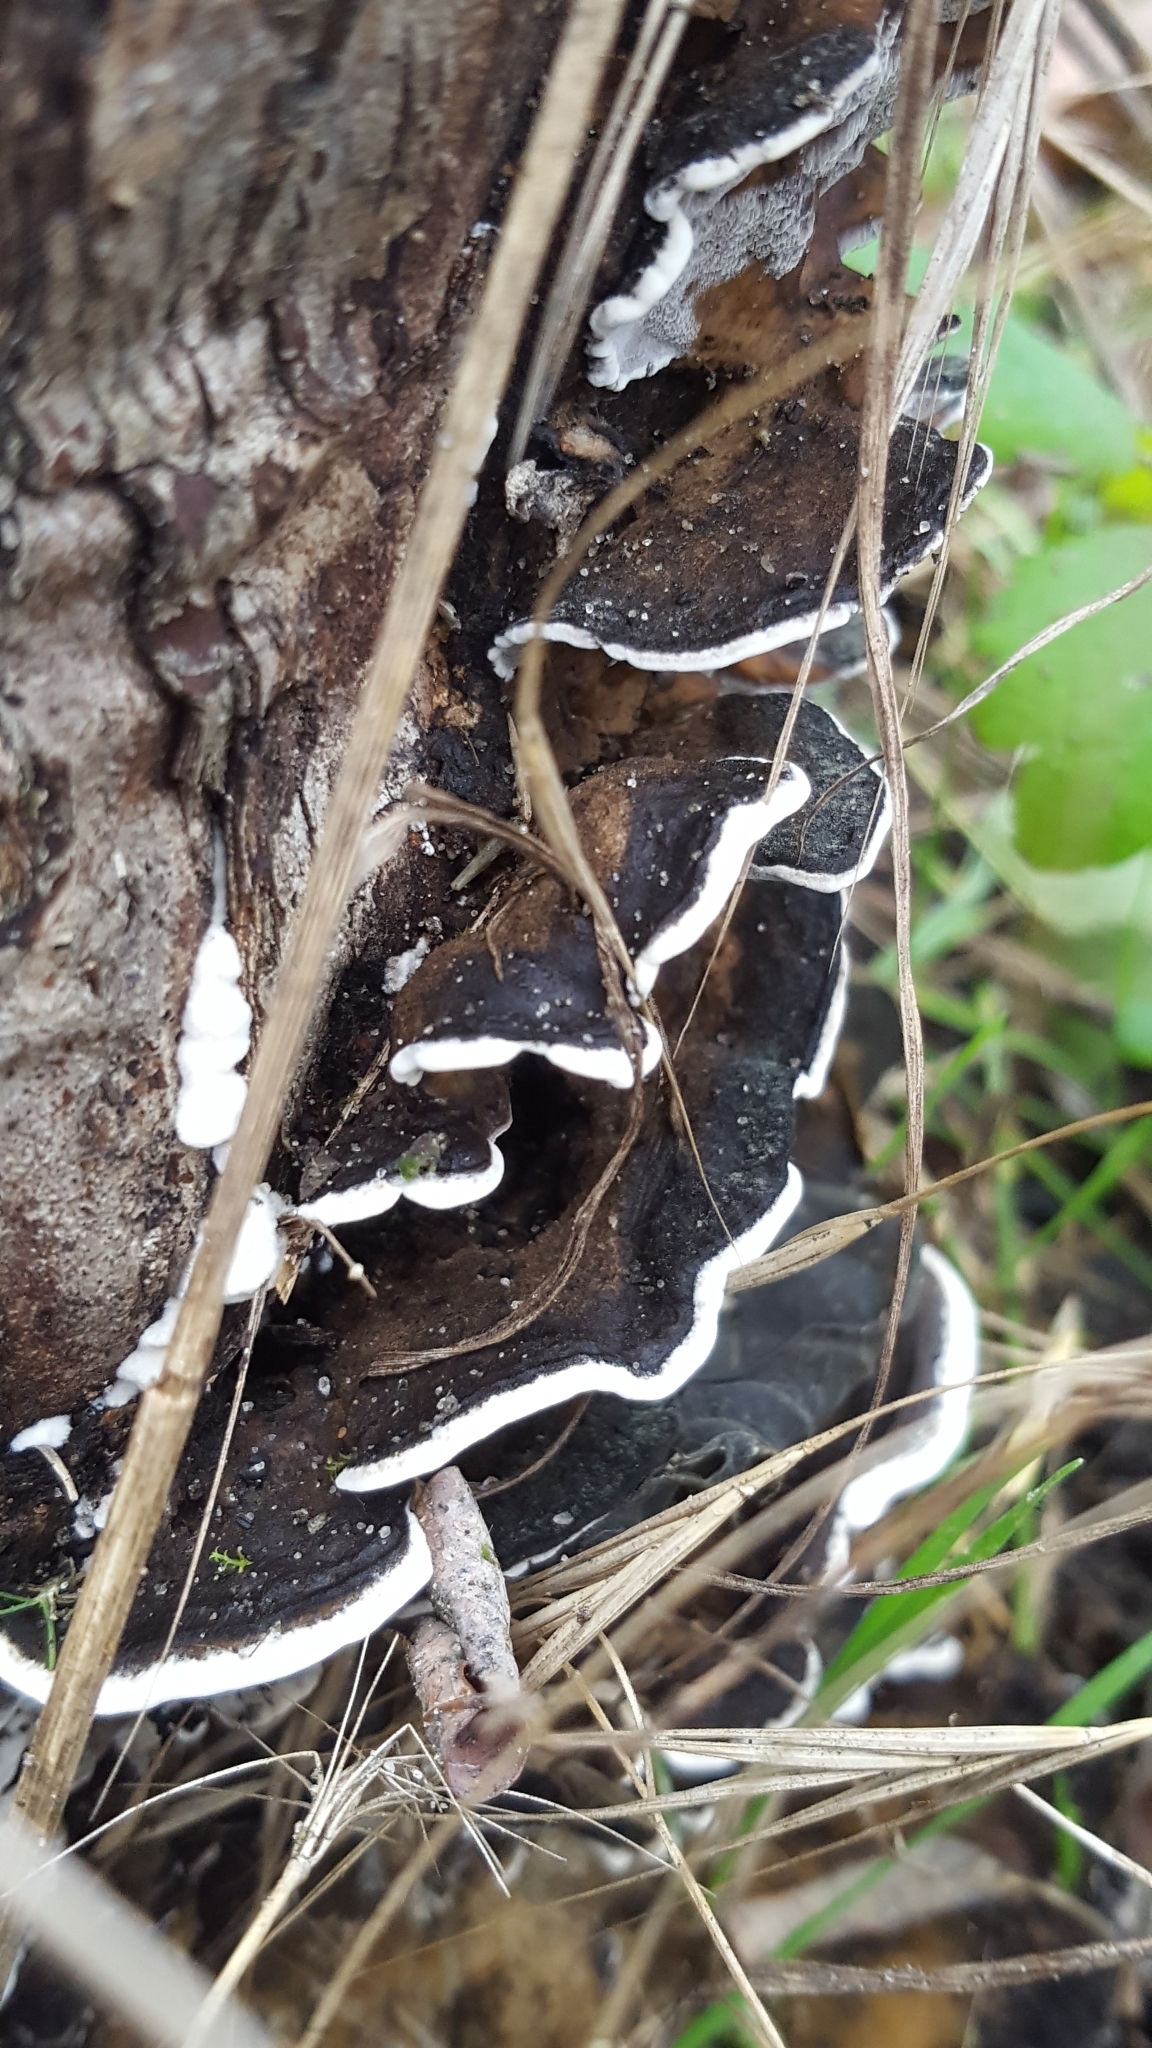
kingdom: Fungi
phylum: Basidiomycota
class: Agaricomycetes
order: Polyporales
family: Phanerochaetaceae
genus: Bjerkandera
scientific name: Bjerkandera adusta
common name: Smoky bracket
